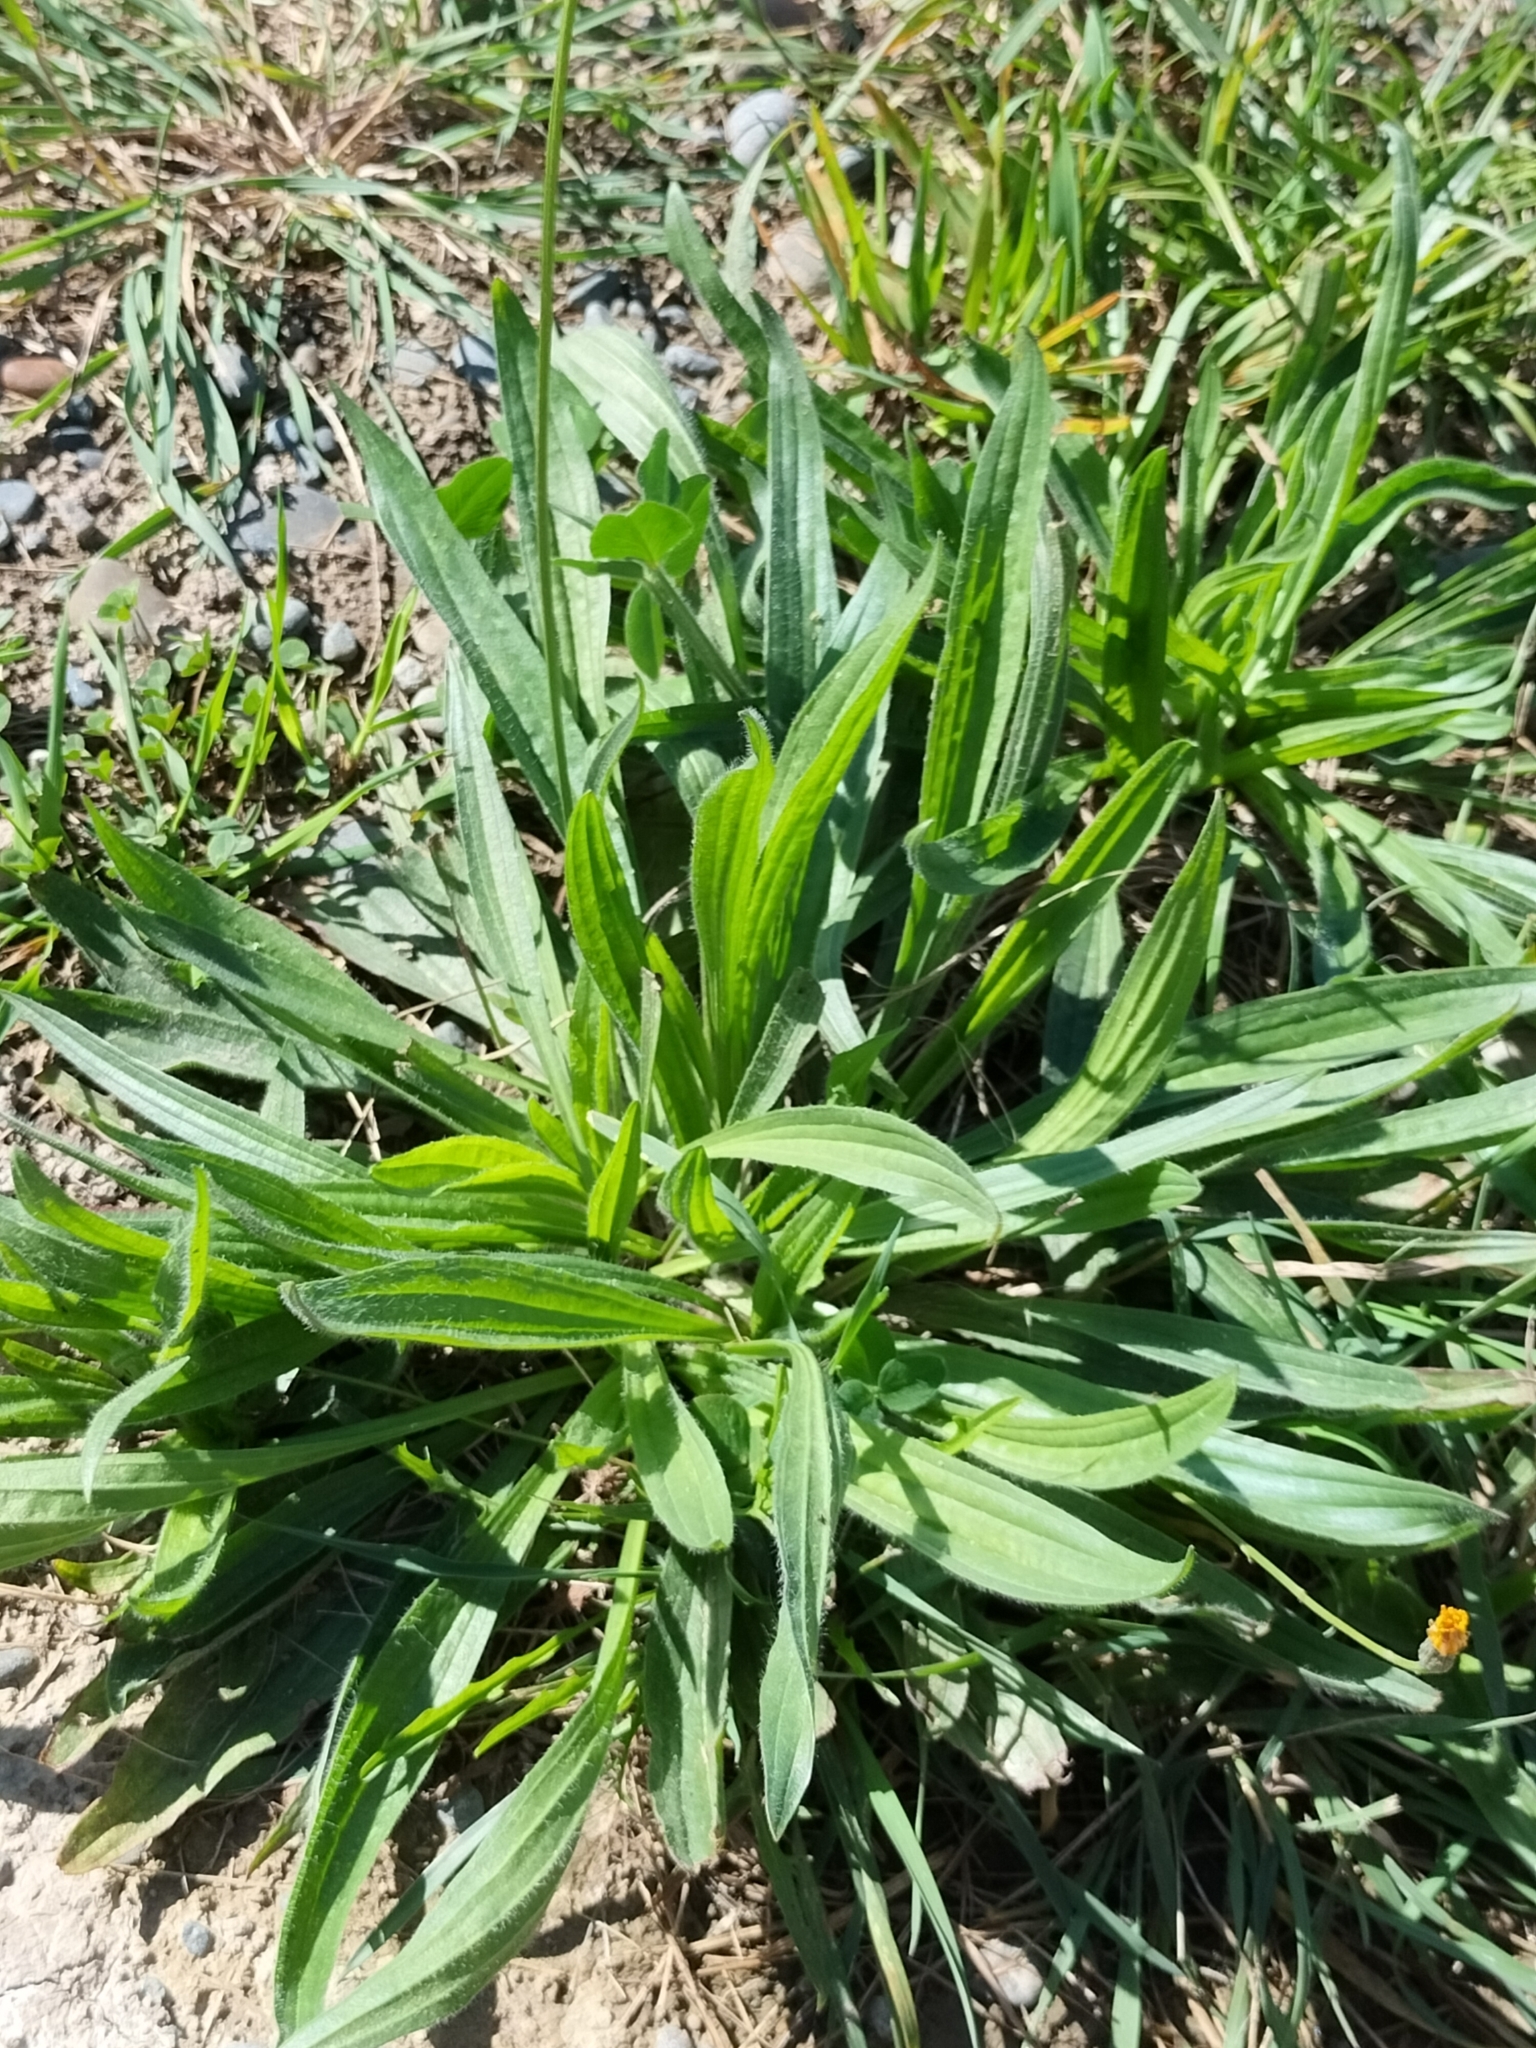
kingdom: Plantae
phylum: Tracheophyta
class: Magnoliopsida
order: Lamiales
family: Plantaginaceae
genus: Plantago
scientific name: Plantago lanceolata
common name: Ribwort plantain
